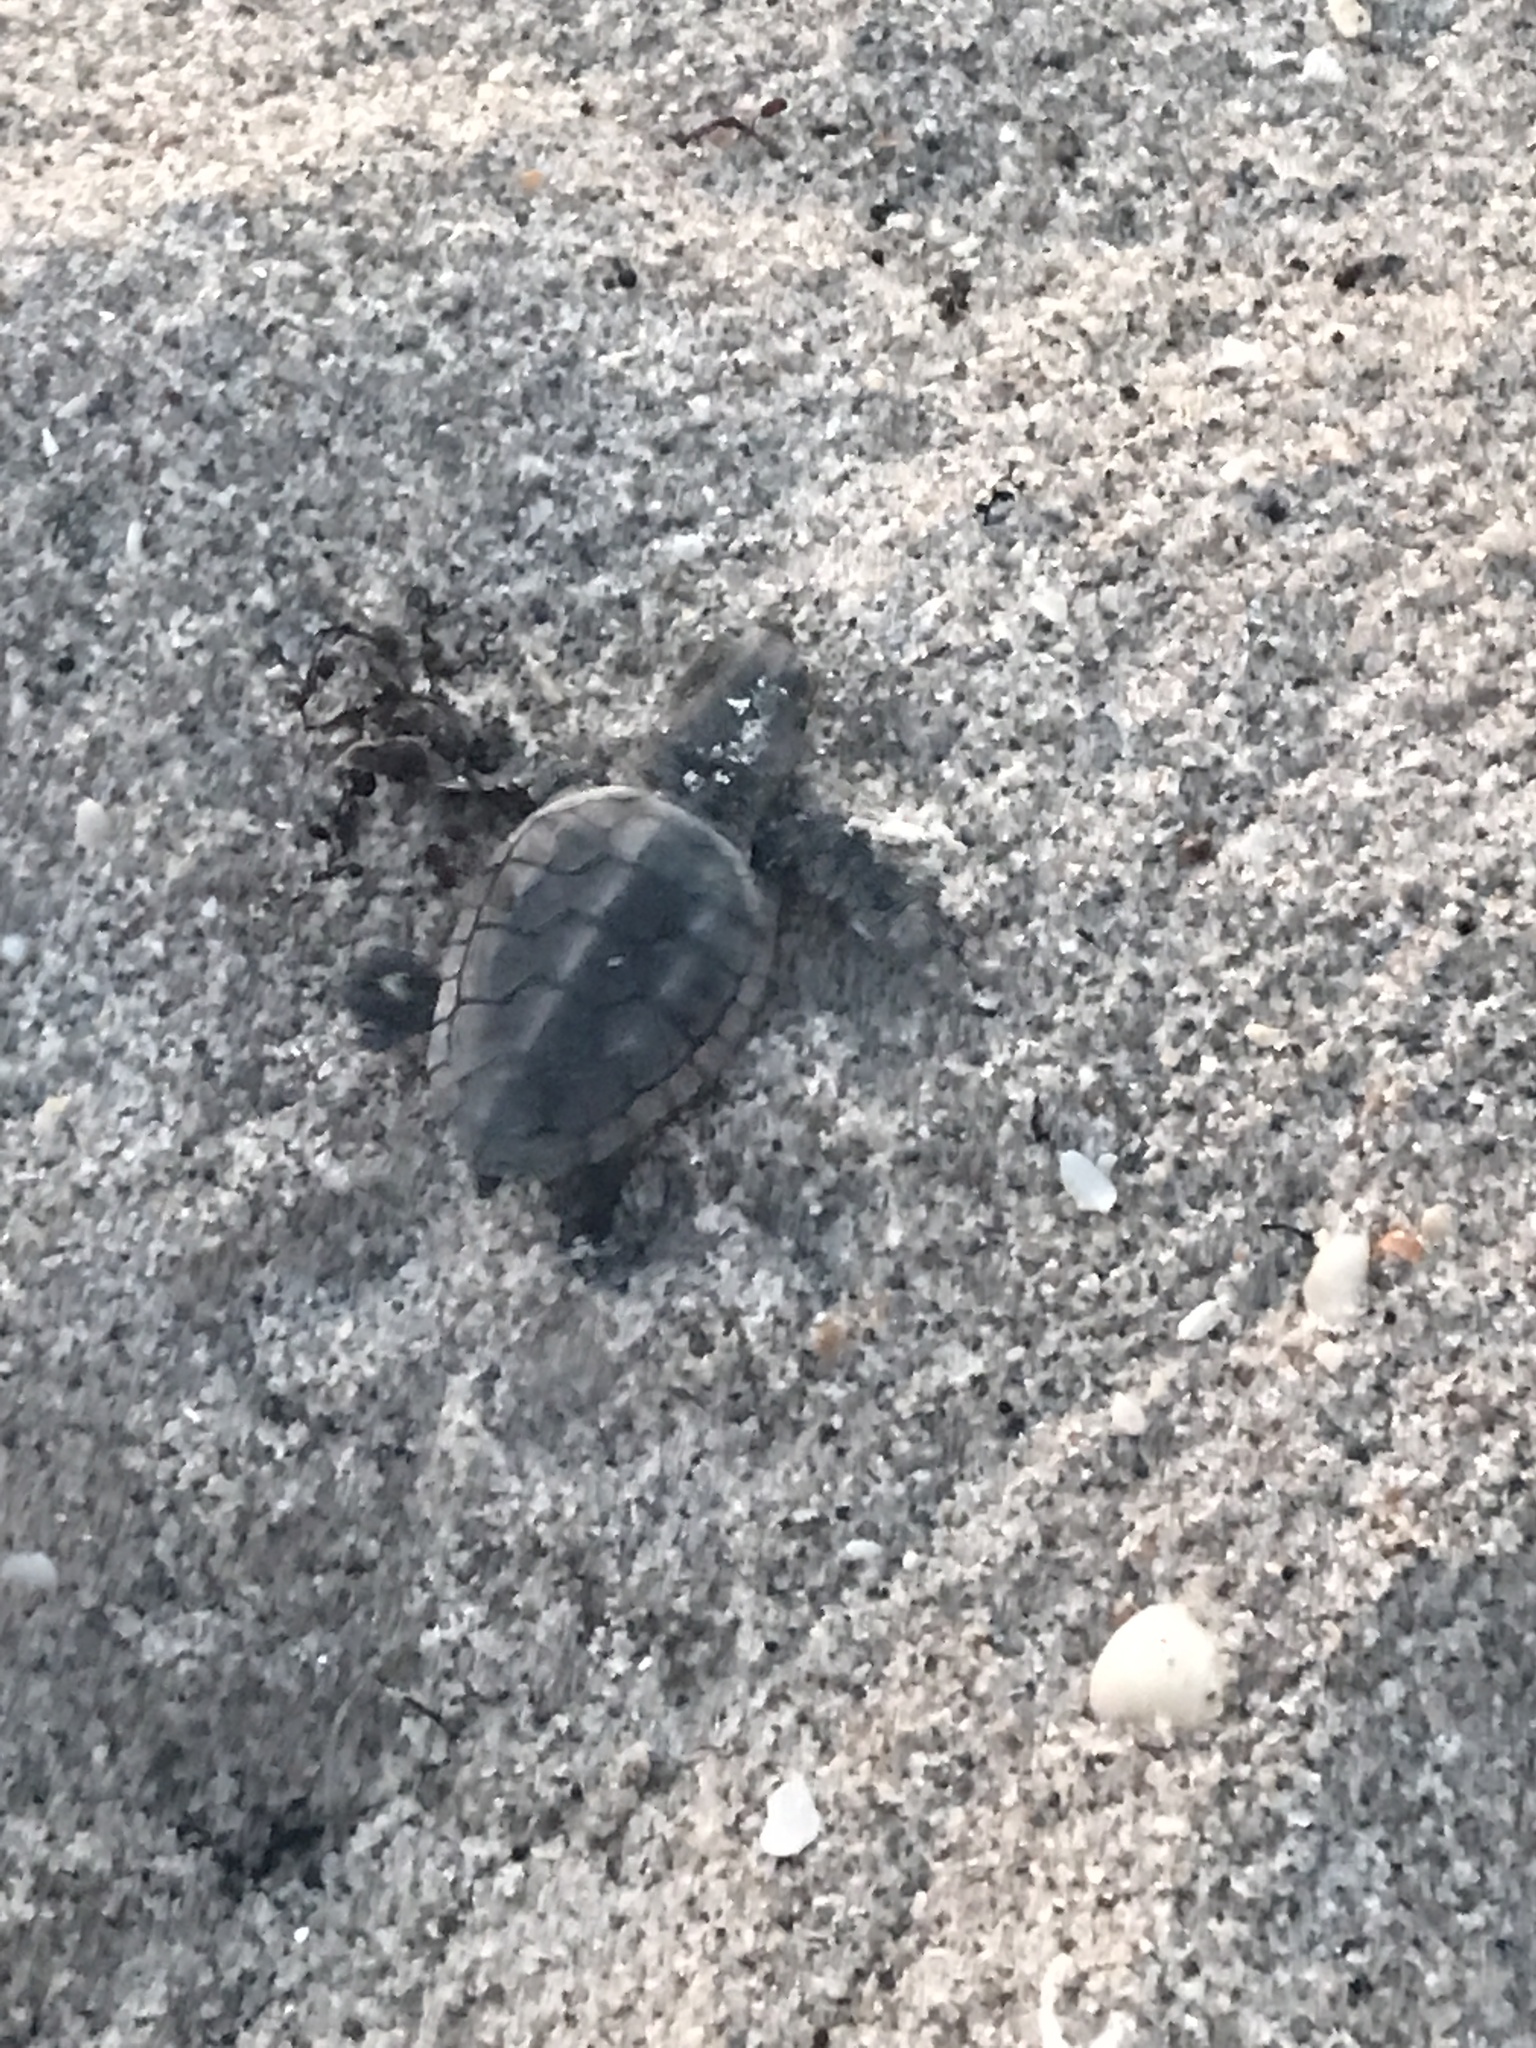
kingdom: Animalia
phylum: Chordata
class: Testudines
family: Cheloniidae
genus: Caretta
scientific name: Caretta caretta
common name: Loggerhead sea turtle
